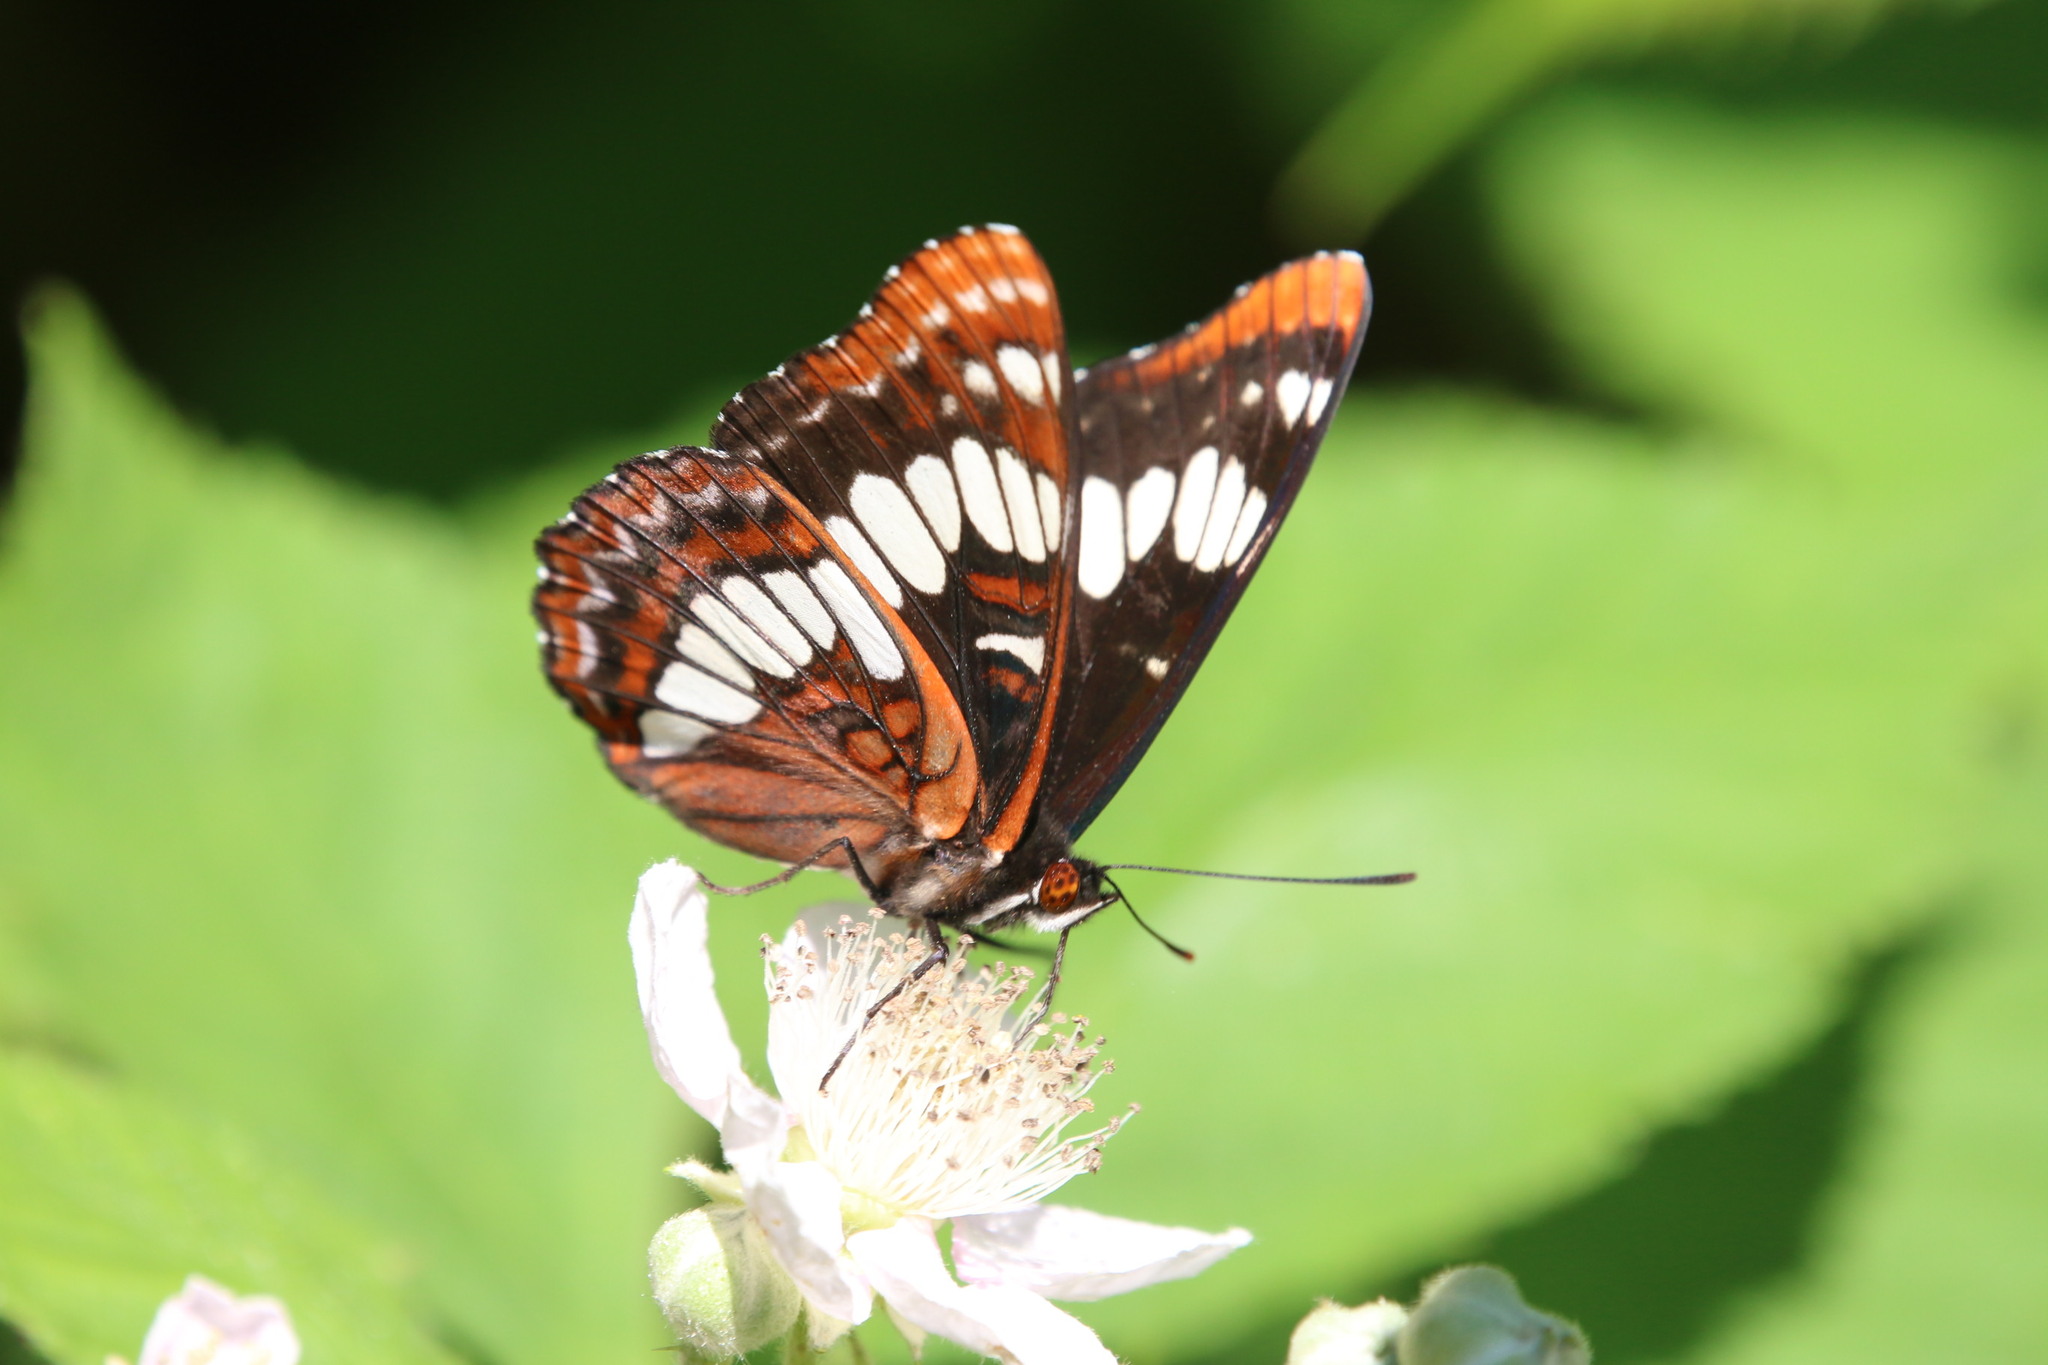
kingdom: Animalia
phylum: Arthropoda
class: Insecta
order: Lepidoptera
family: Nymphalidae
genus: Limenitis
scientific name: Limenitis lorquini
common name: Lorquin's admiral
